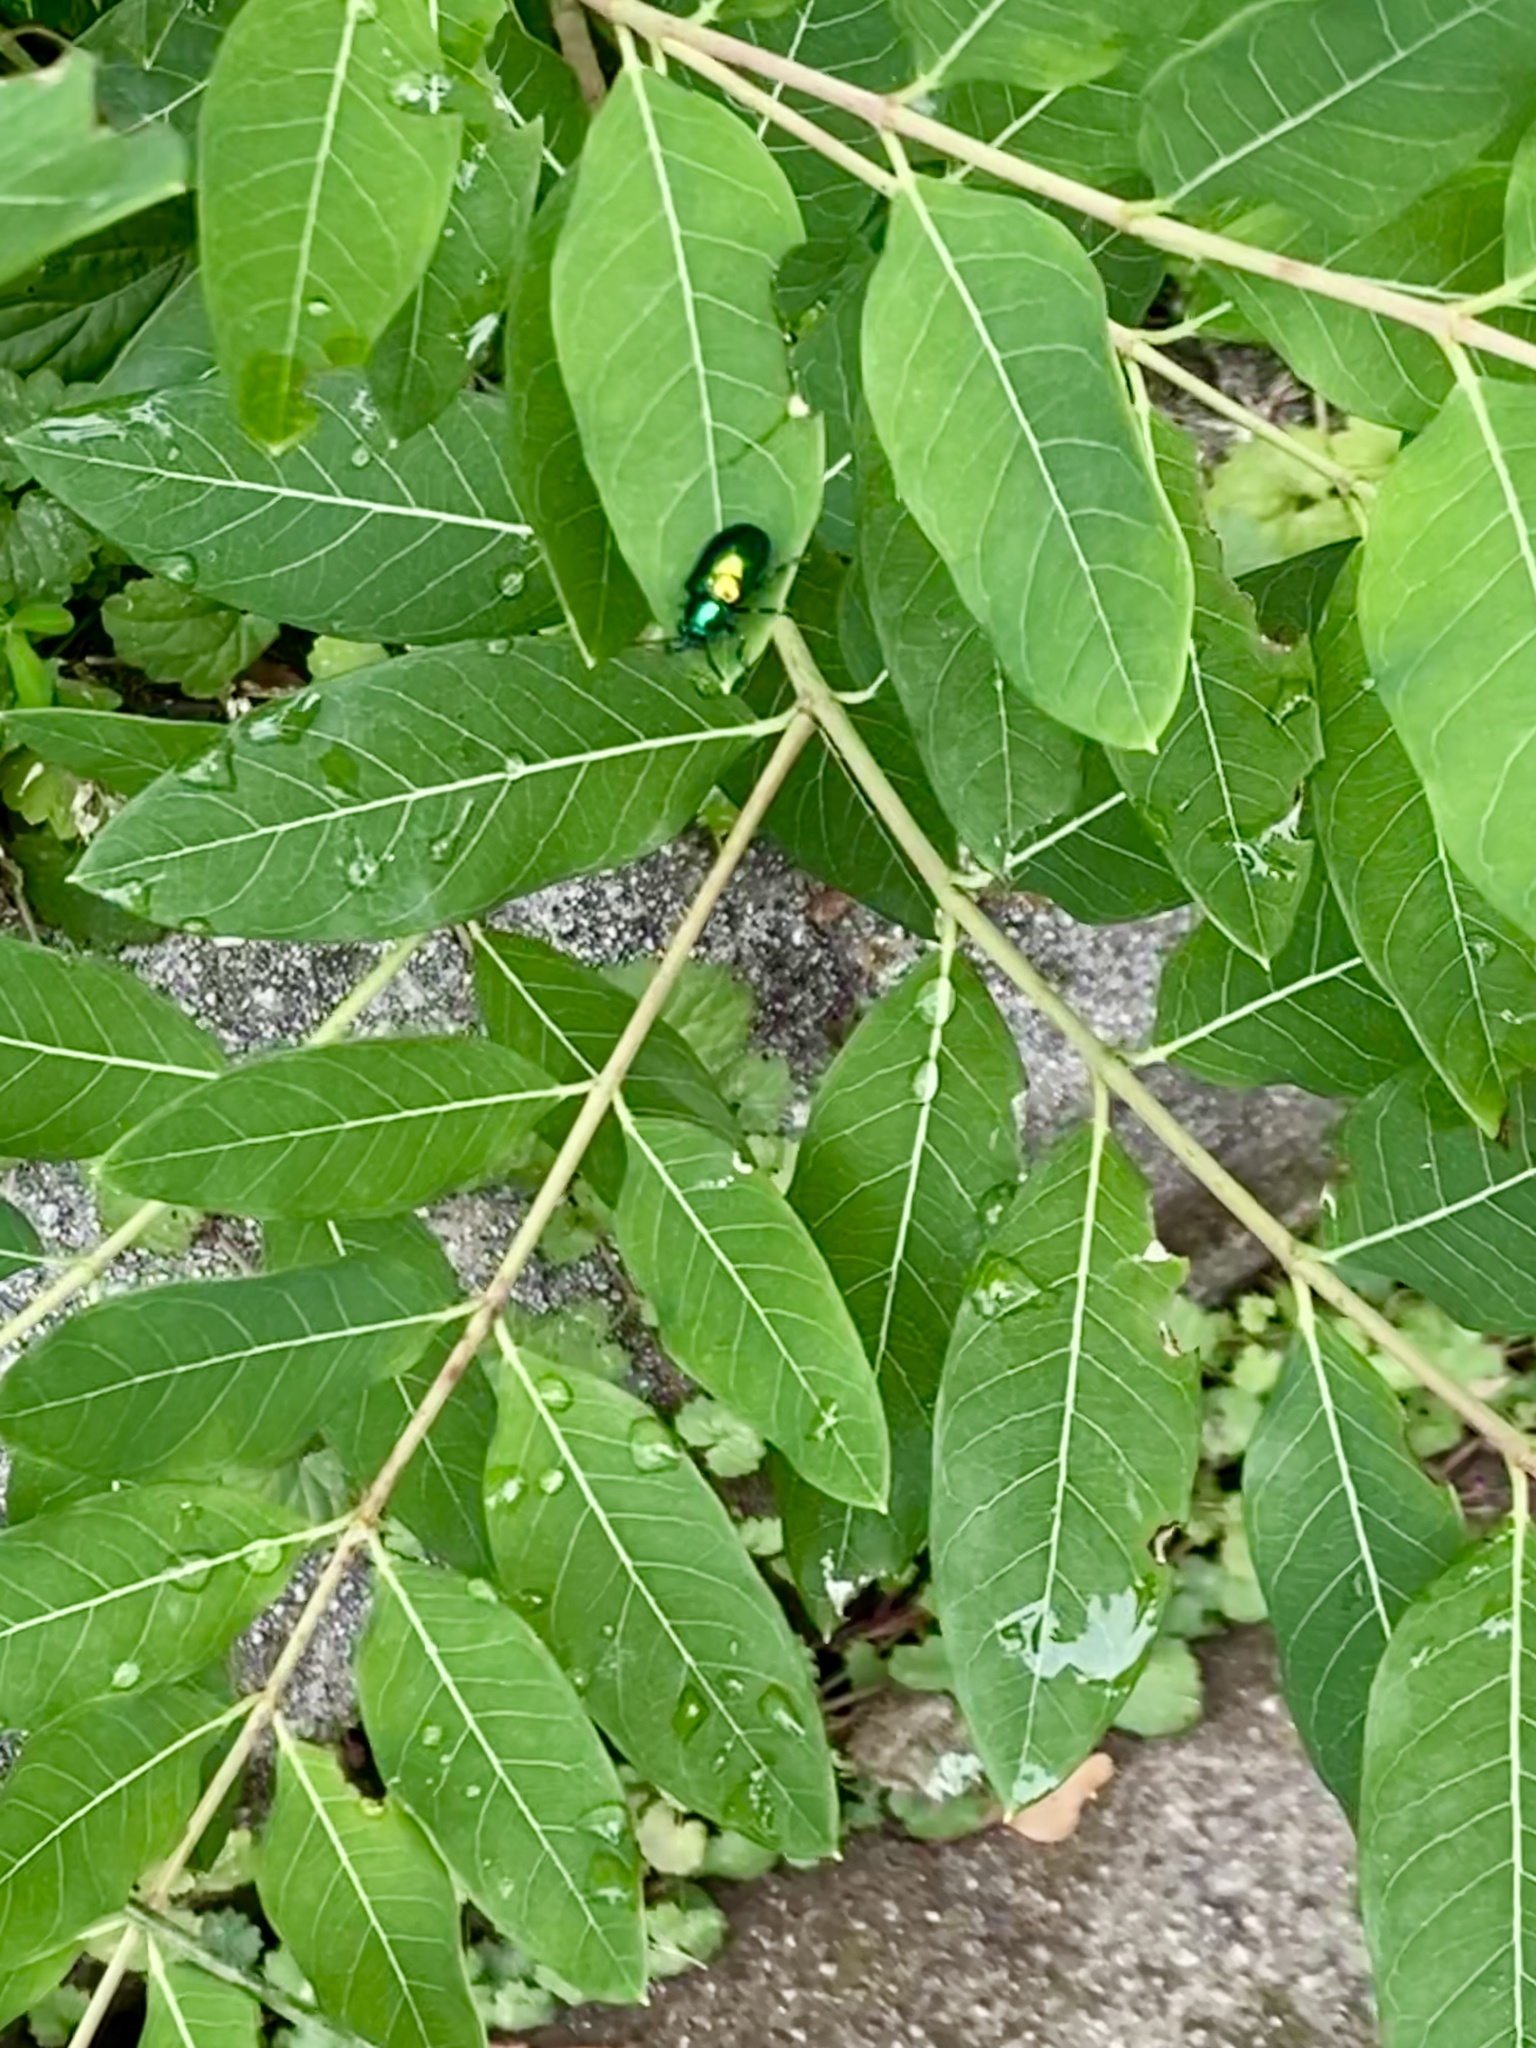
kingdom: Plantae
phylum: Tracheophyta
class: Magnoliopsida
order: Gentianales
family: Apocynaceae
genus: Apocynum
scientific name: Apocynum cannabinum
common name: Hemp dogbane
